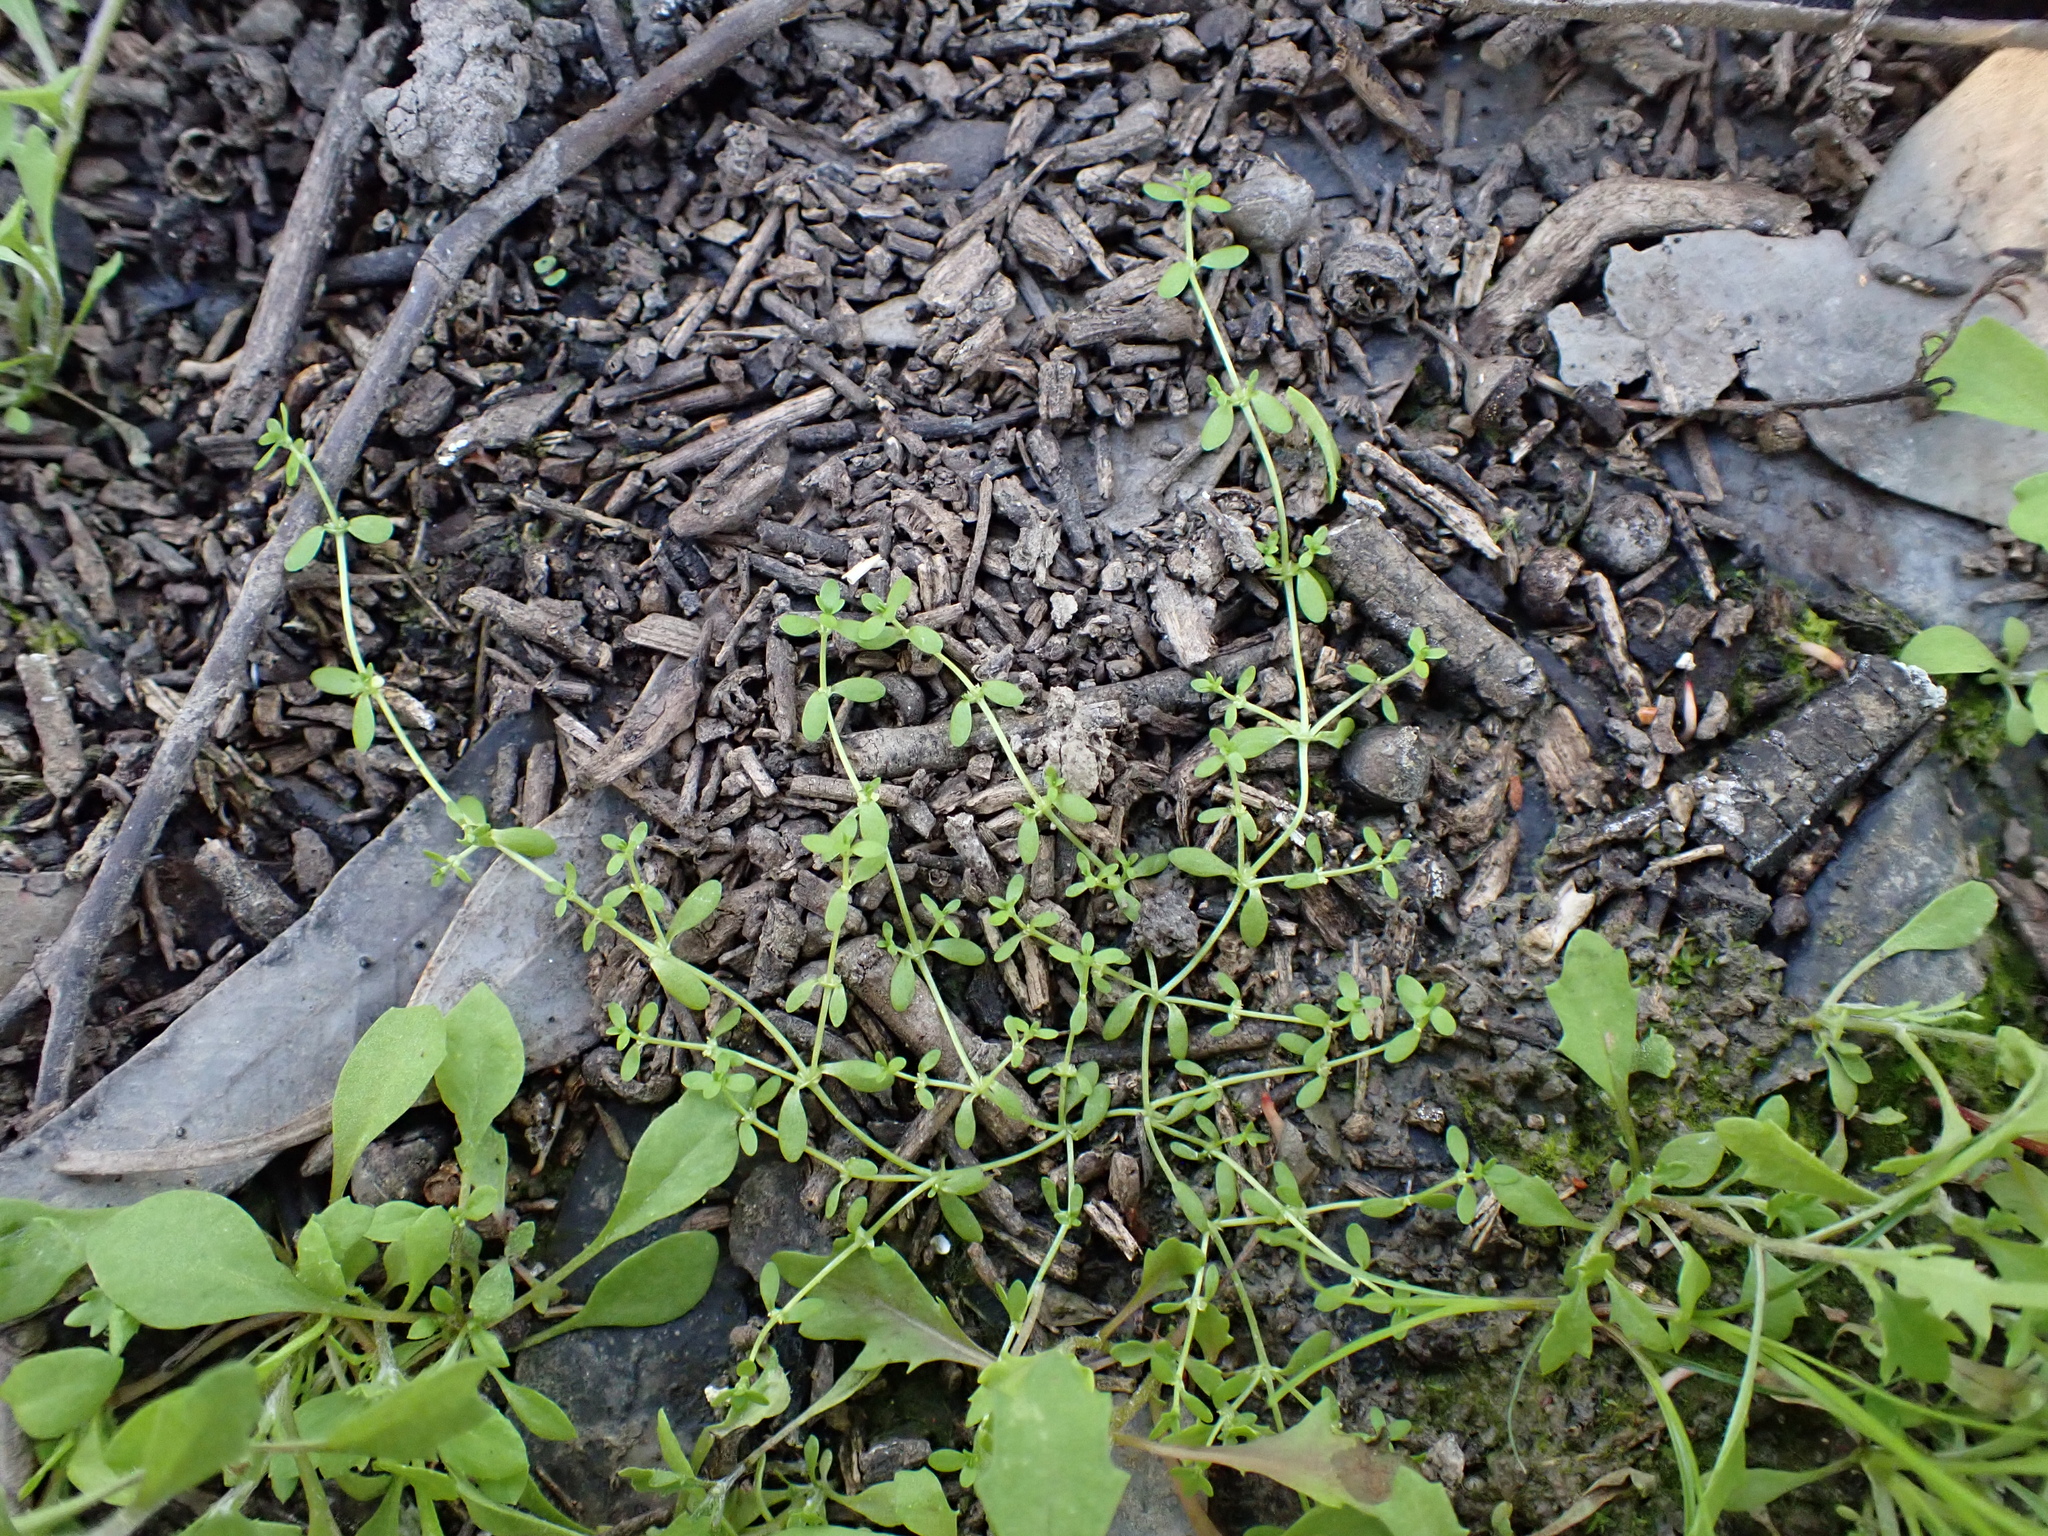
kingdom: Plantae
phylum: Tracheophyta
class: Magnoliopsida
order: Lamiales
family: Plantaginaceae
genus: Callitriche
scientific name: Callitriche sonderi
